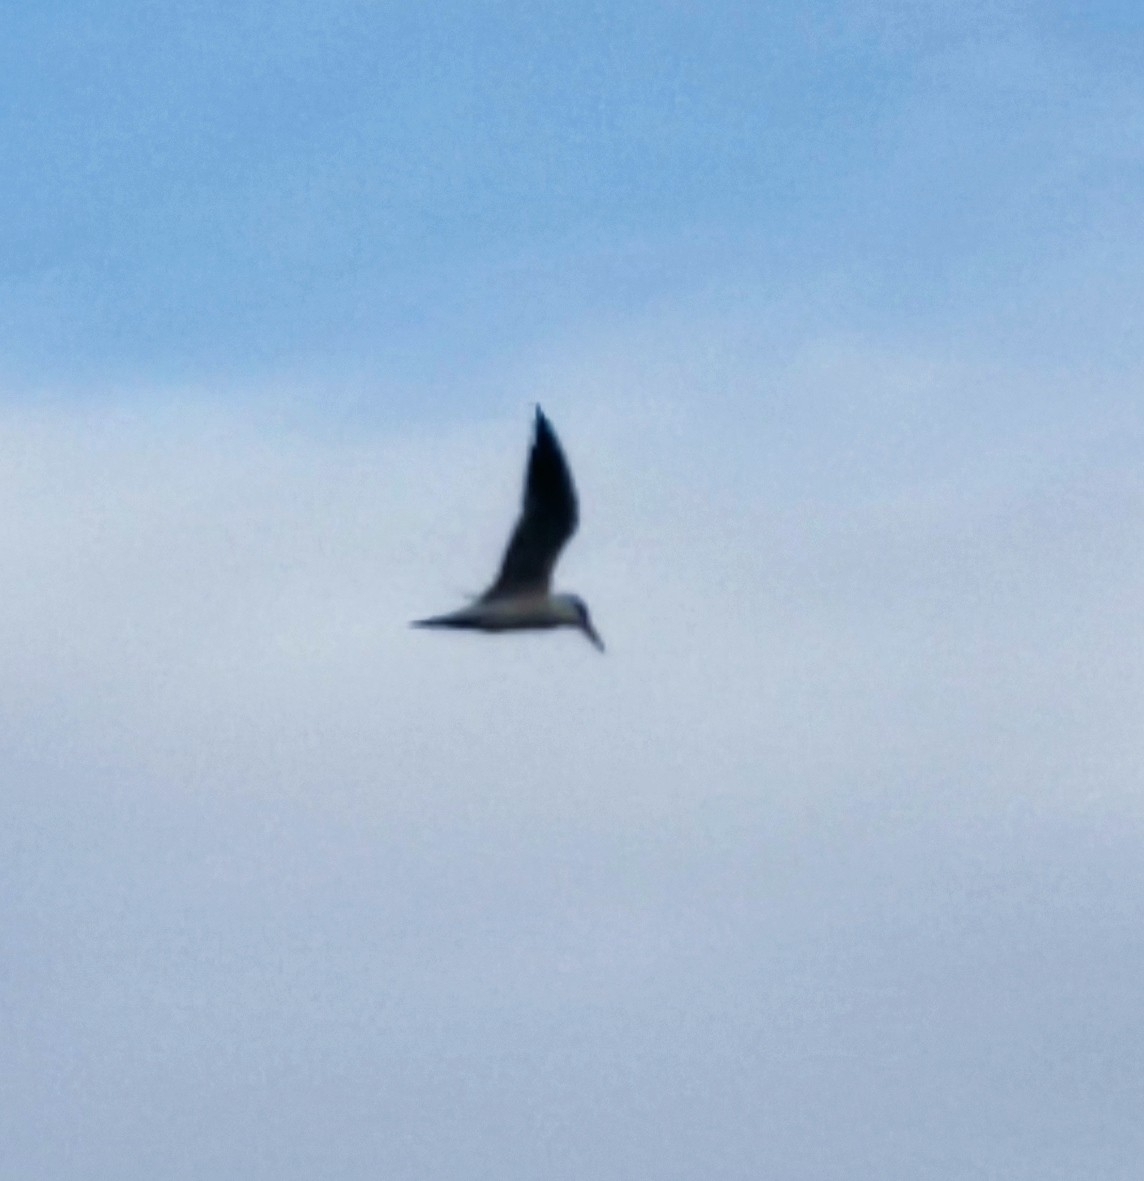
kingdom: Animalia
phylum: Chordata
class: Aves
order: Charadriiformes
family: Laridae
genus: Hydroprogne
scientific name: Hydroprogne caspia
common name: Caspian tern
